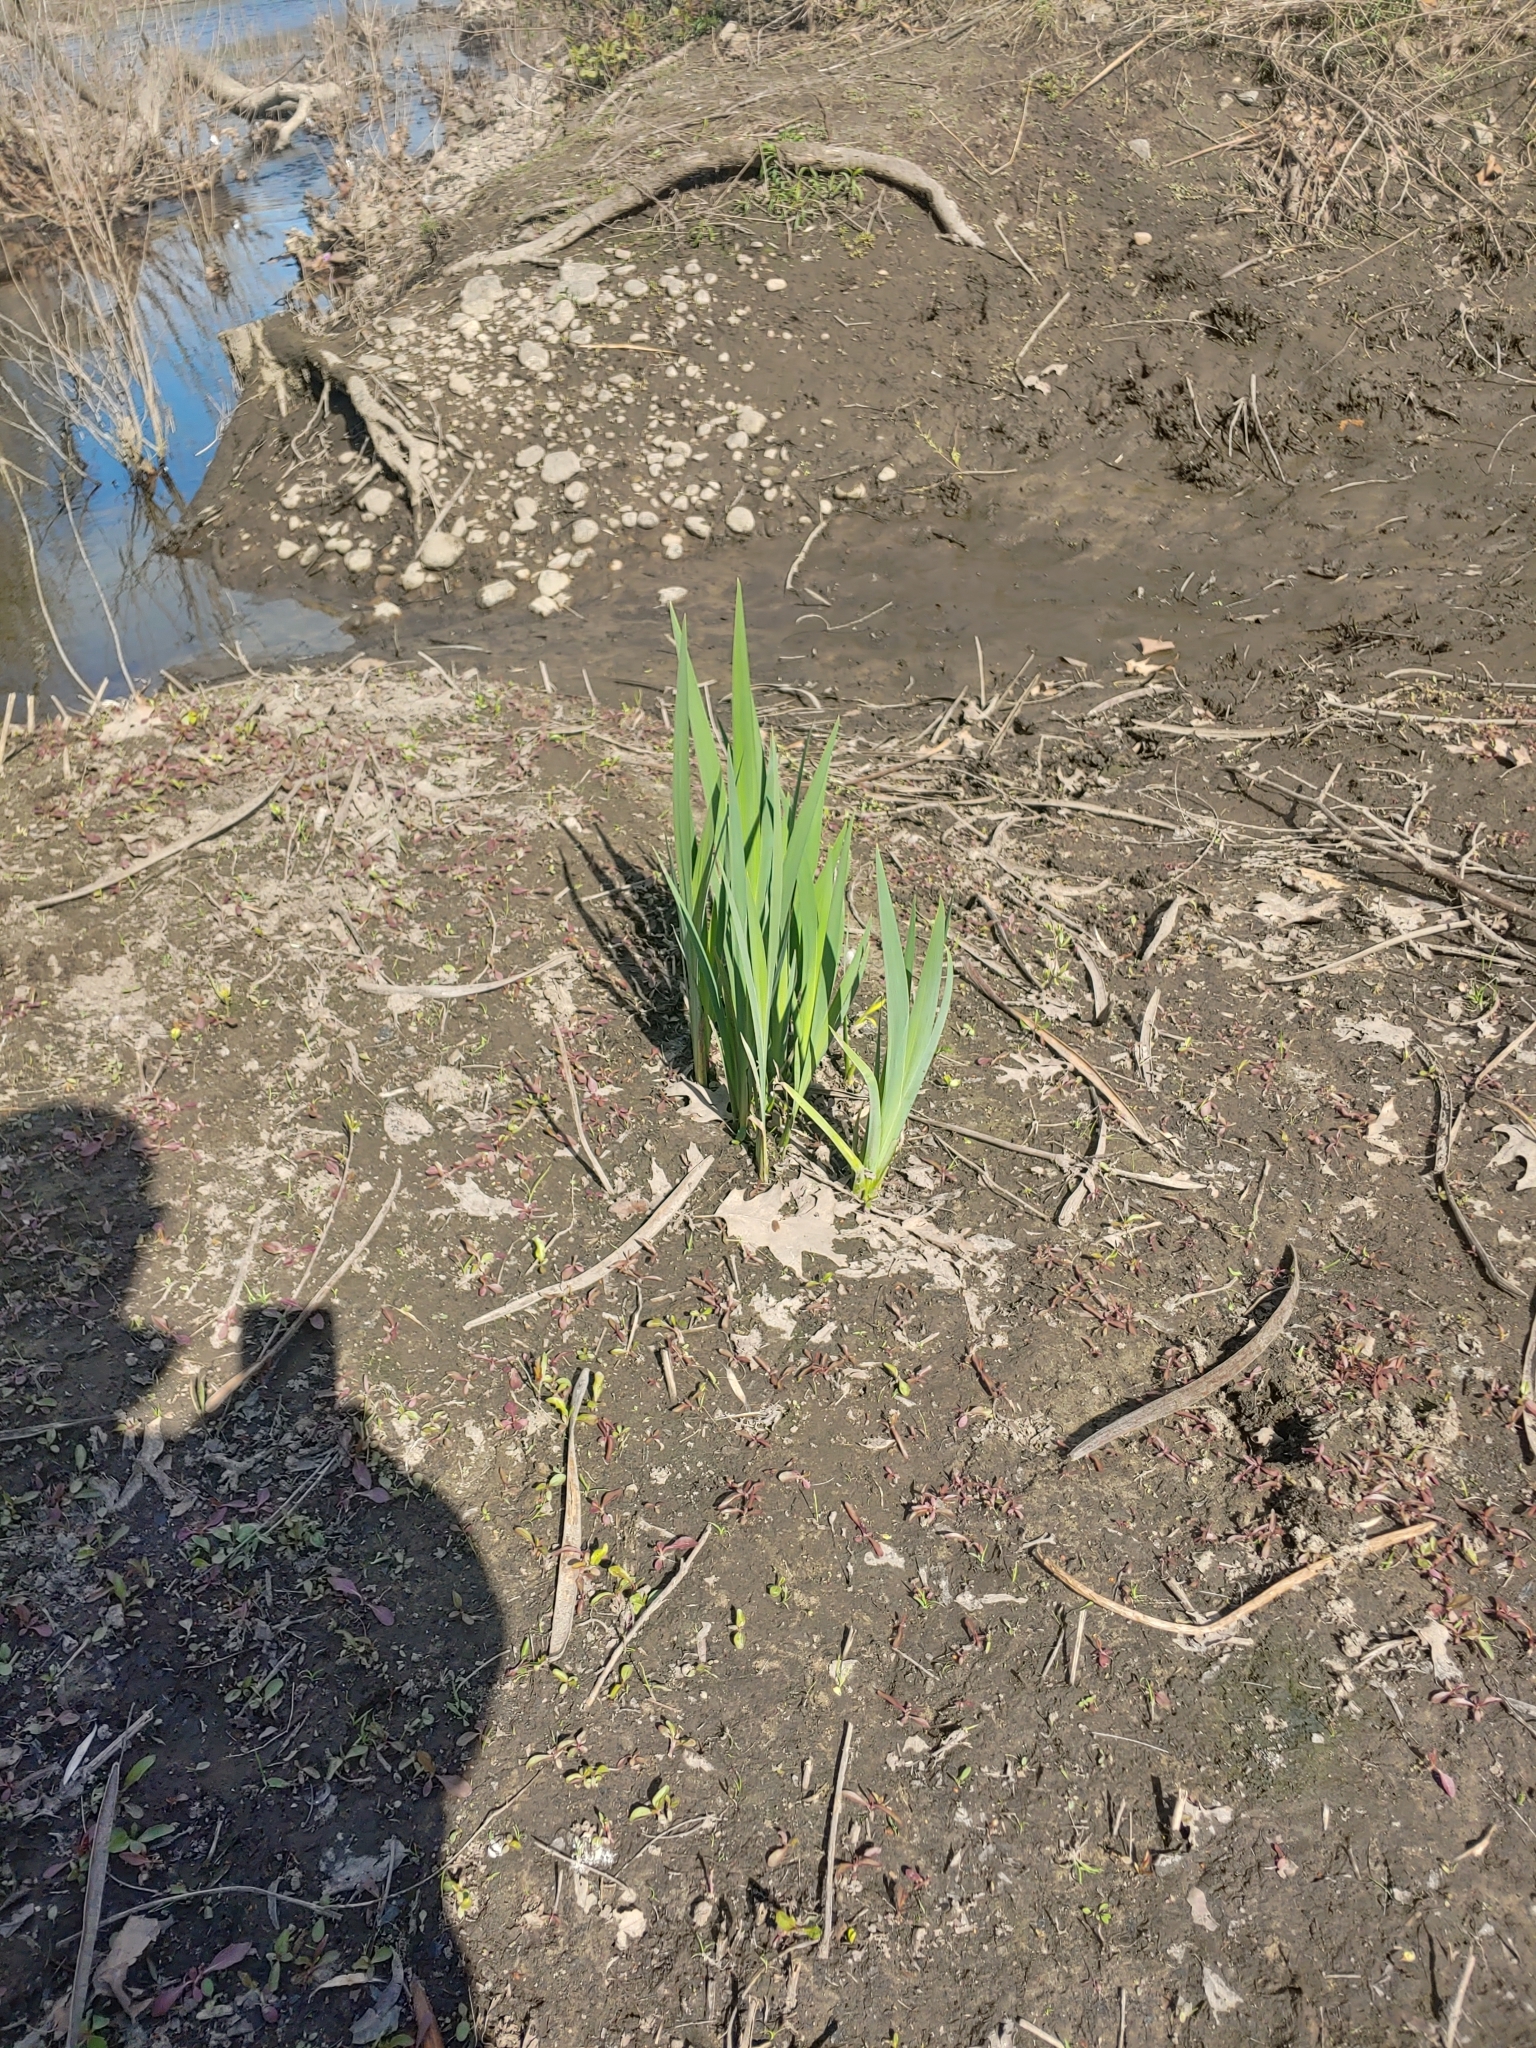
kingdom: Plantae
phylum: Tracheophyta
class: Liliopsida
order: Asparagales
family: Iridaceae
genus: Iris
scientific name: Iris versicolor
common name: Purple iris
